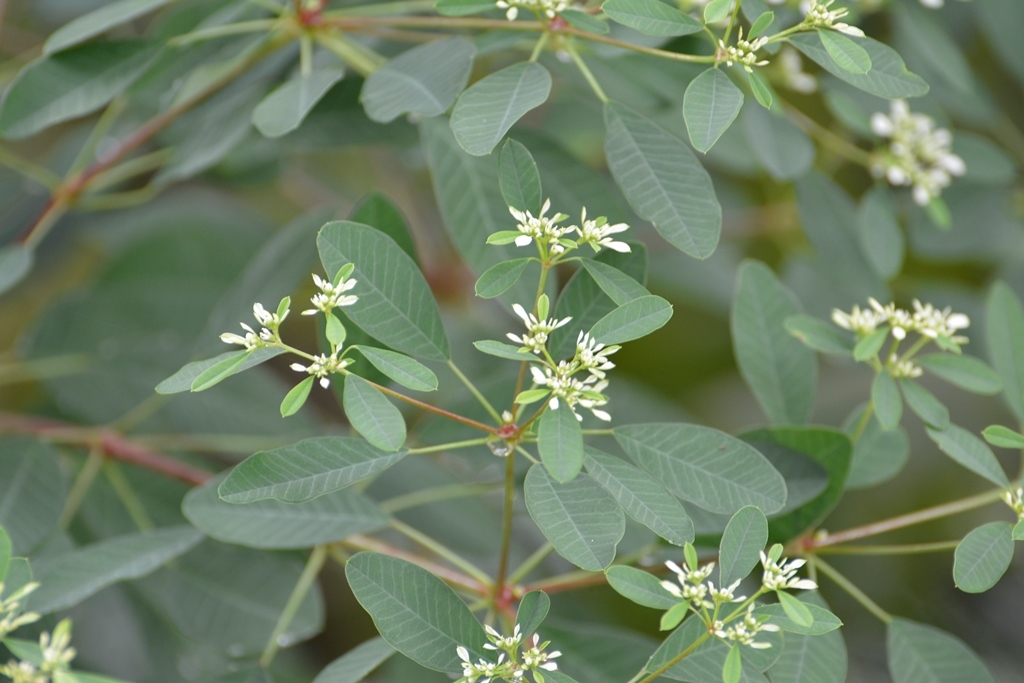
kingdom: Plantae
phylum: Tracheophyta
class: Magnoliopsida
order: Malpighiales
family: Euphorbiaceae
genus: Euphorbia
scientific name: Euphorbia leucocephala
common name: Pascuita
